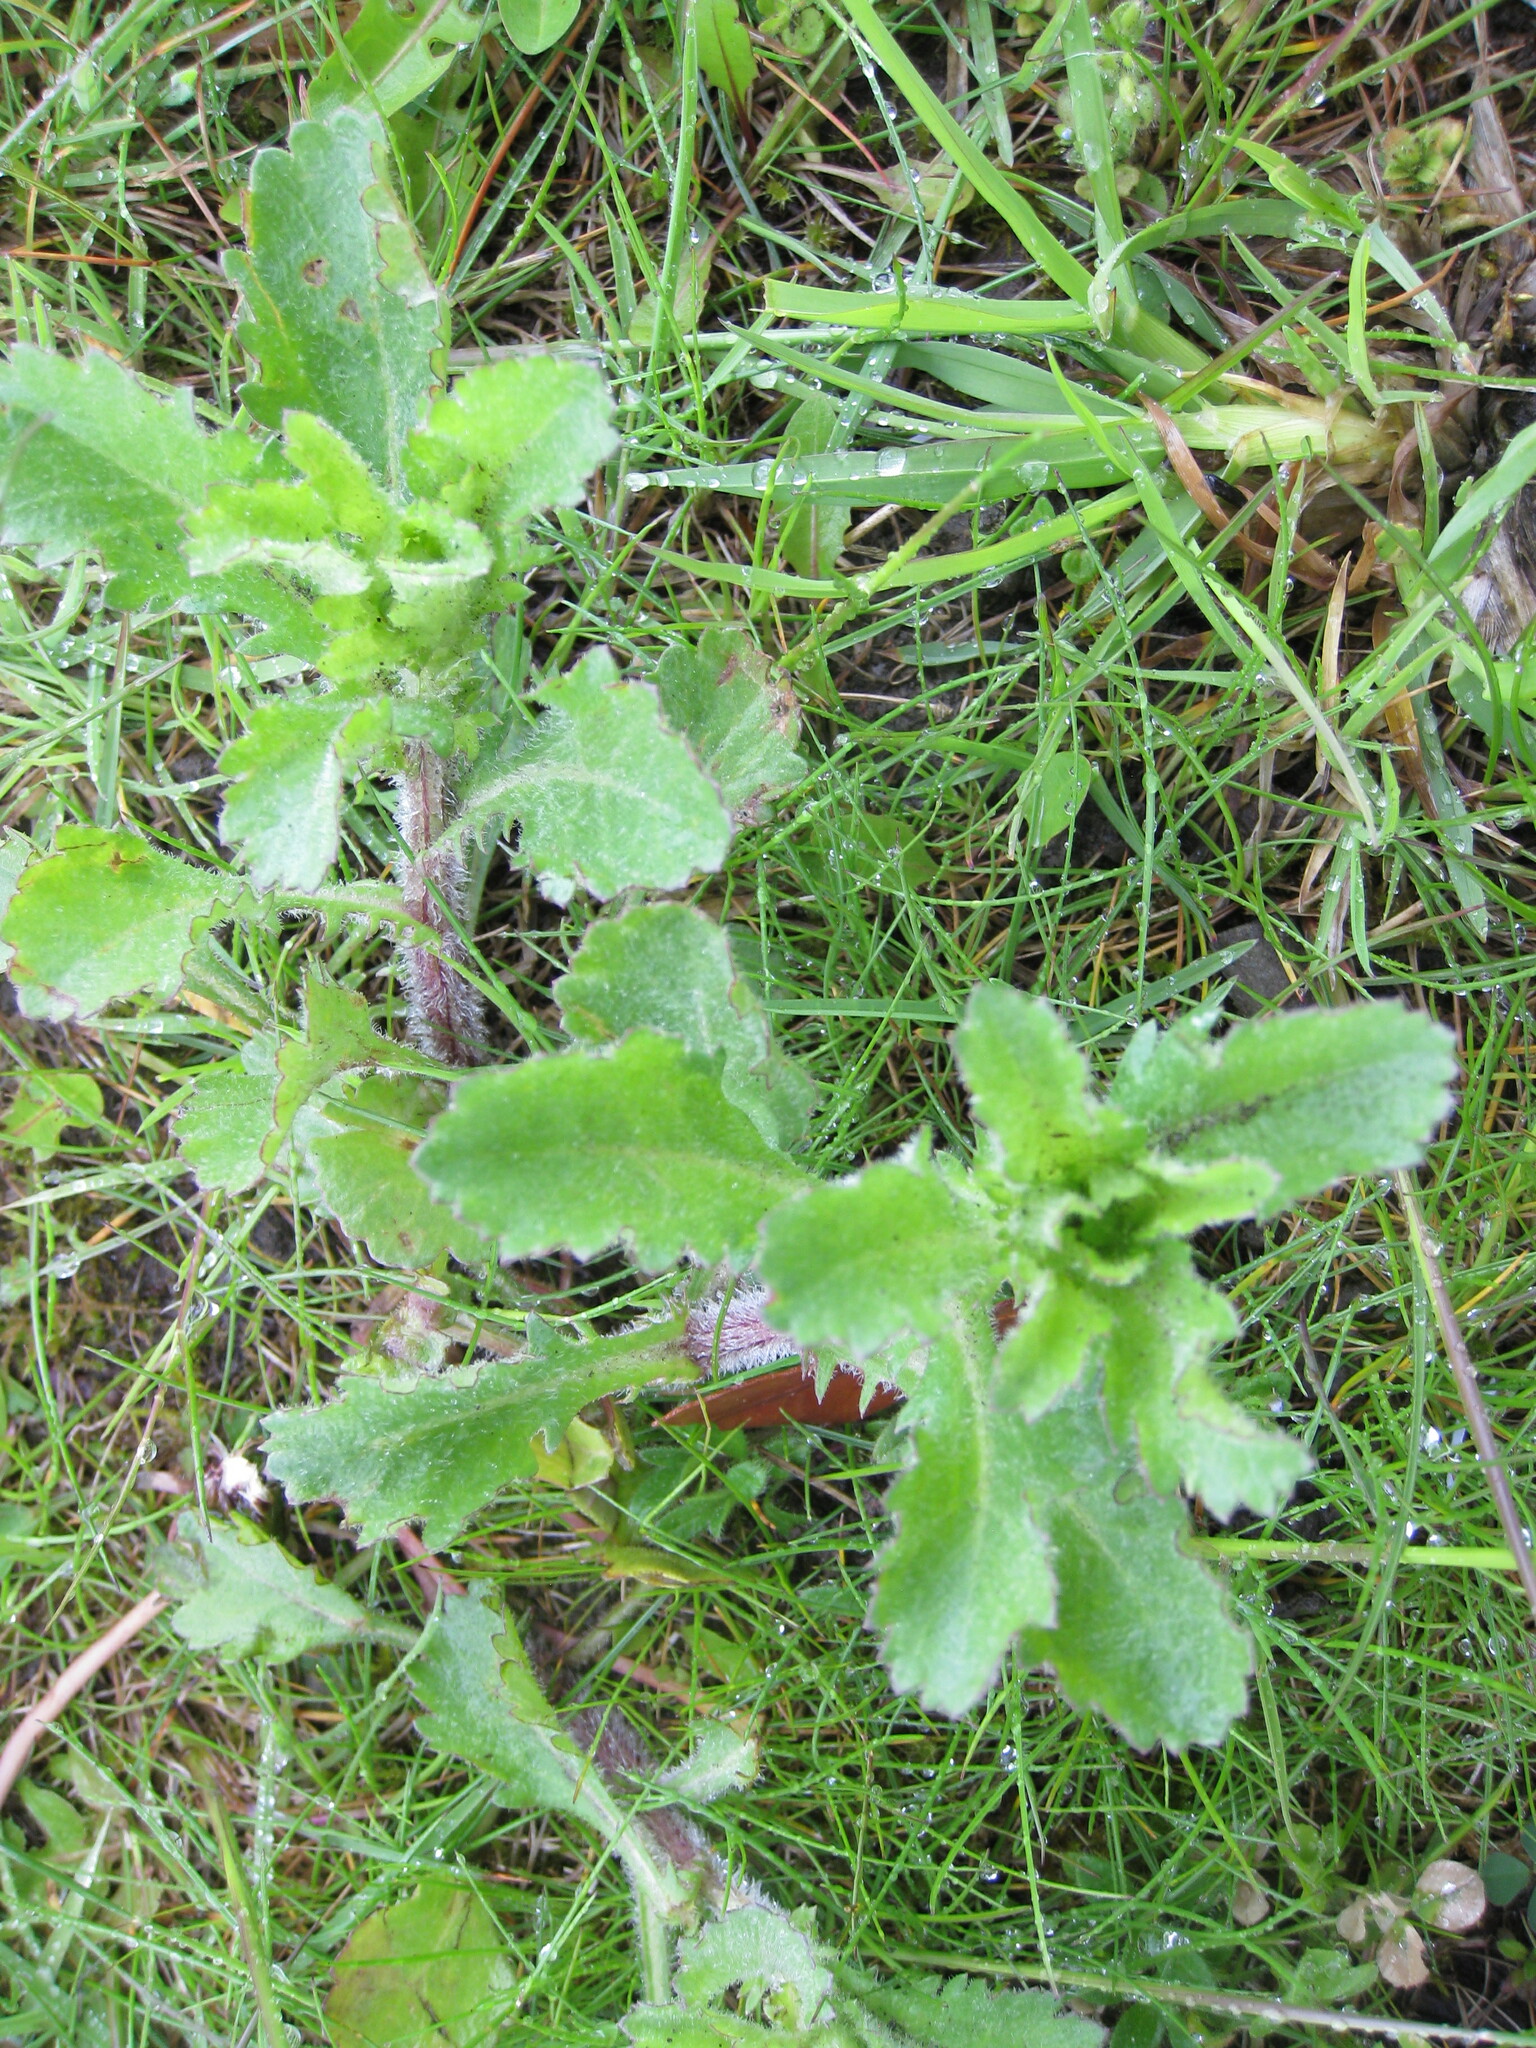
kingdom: Plantae
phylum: Tracheophyta
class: Magnoliopsida
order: Asterales
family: Asteraceae
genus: Leucanthemum
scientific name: Leucanthemum vulgare
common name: Oxeye daisy
